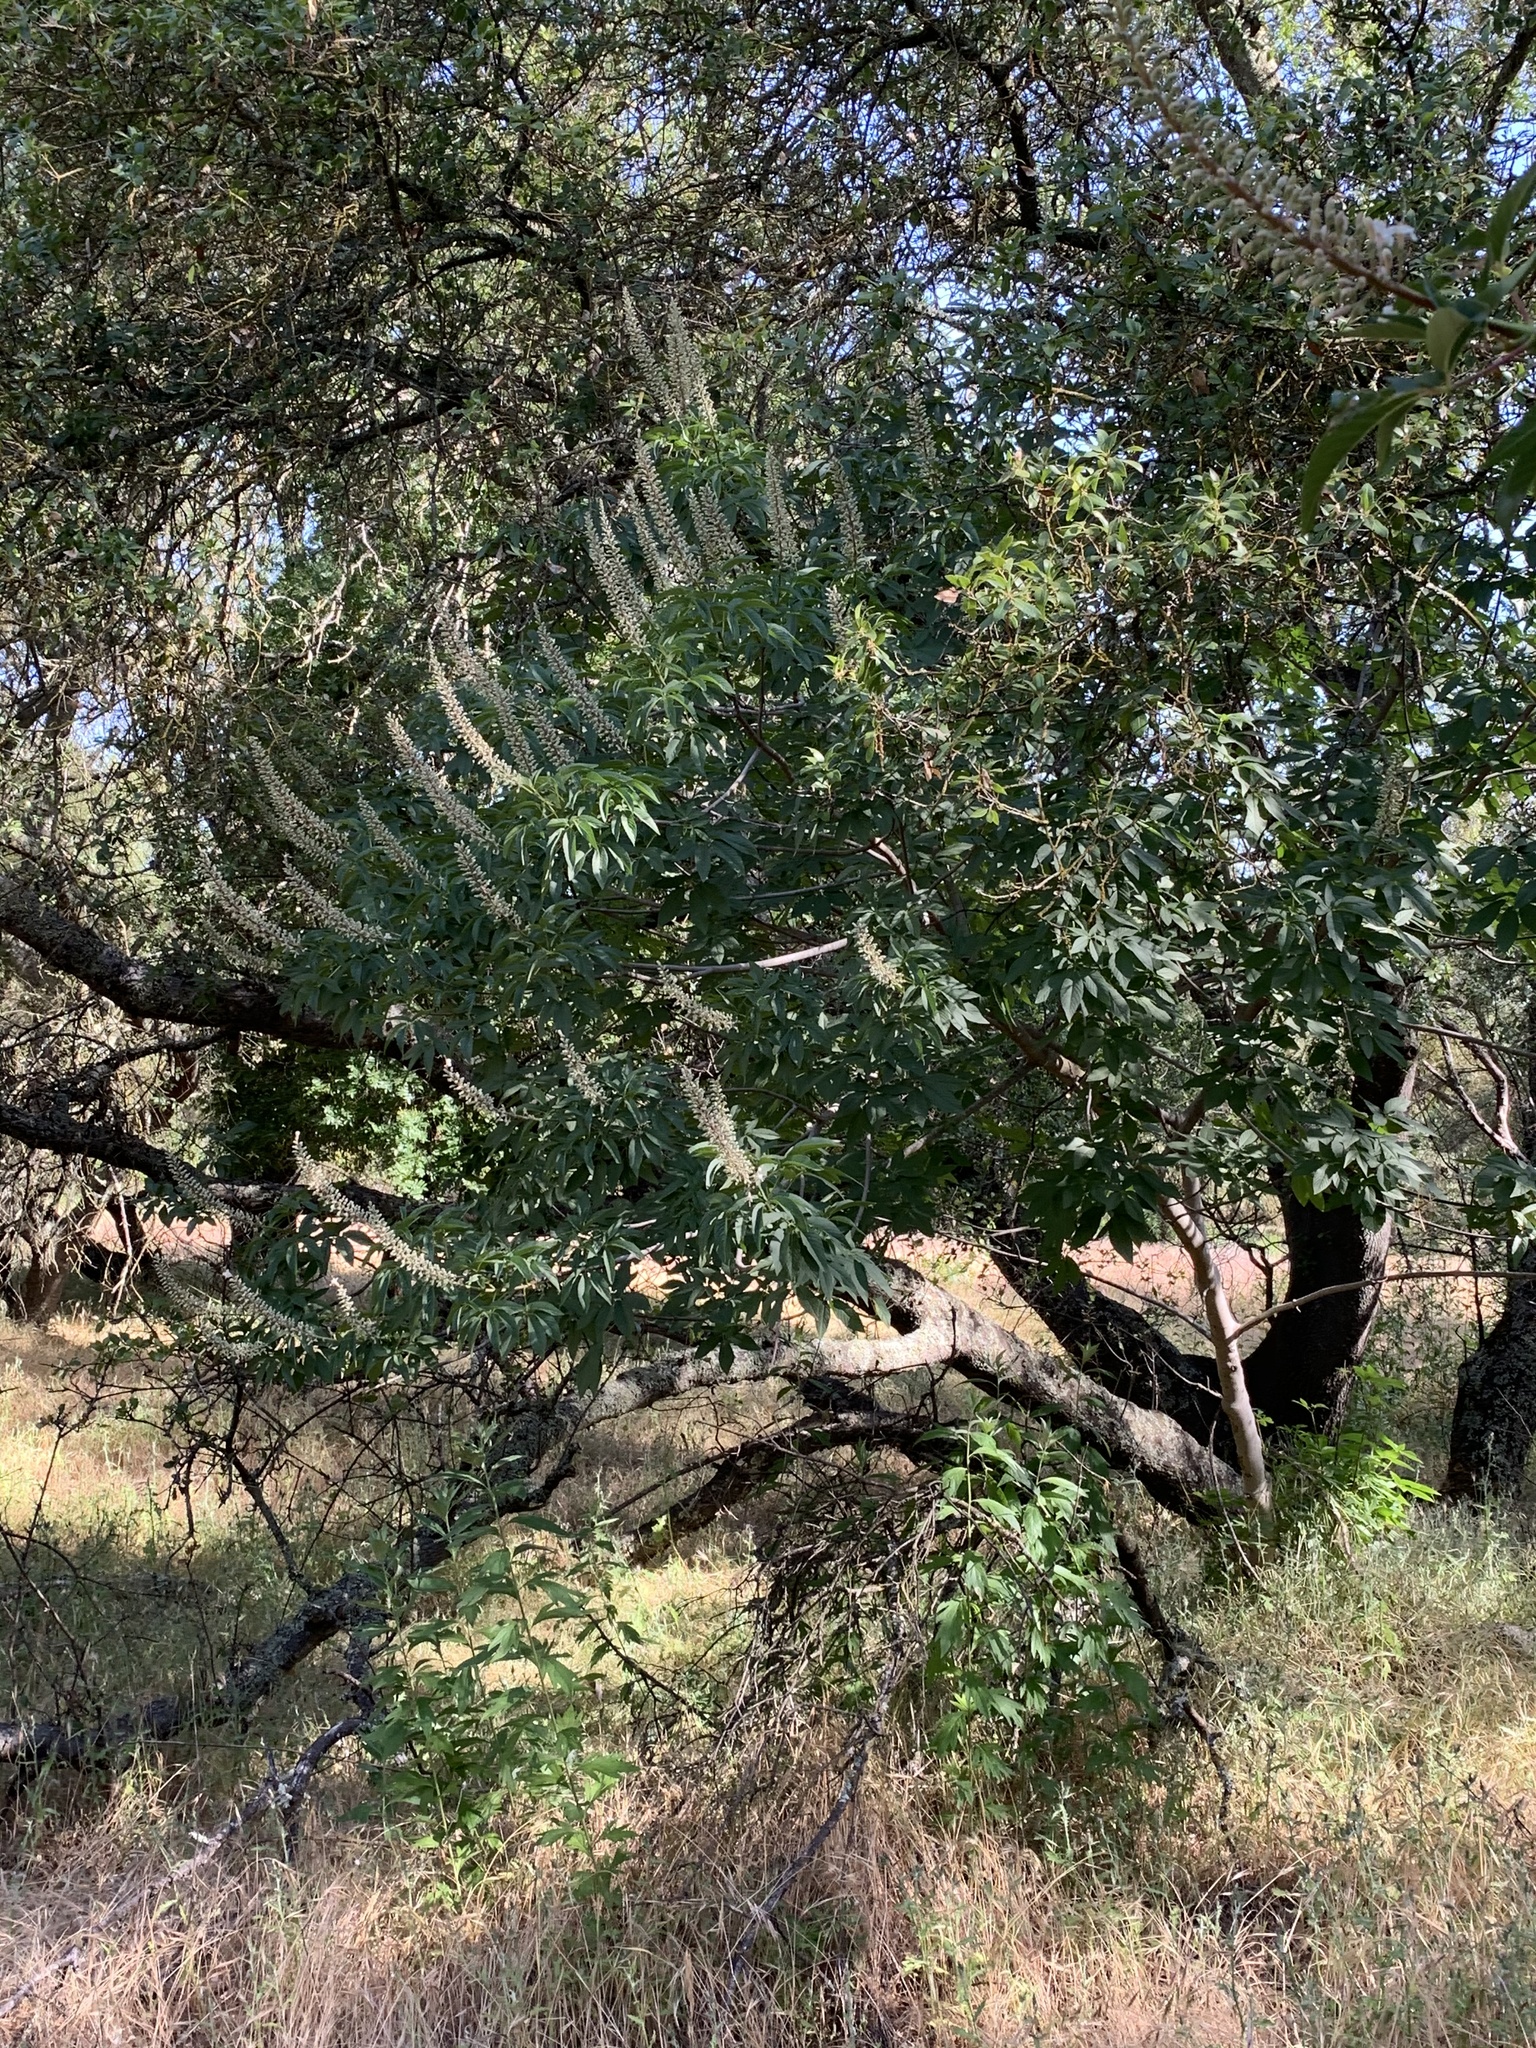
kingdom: Plantae
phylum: Tracheophyta
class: Magnoliopsida
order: Sapindales
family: Sapindaceae
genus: Aesculus
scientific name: Aesculus californica
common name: California buckeye
